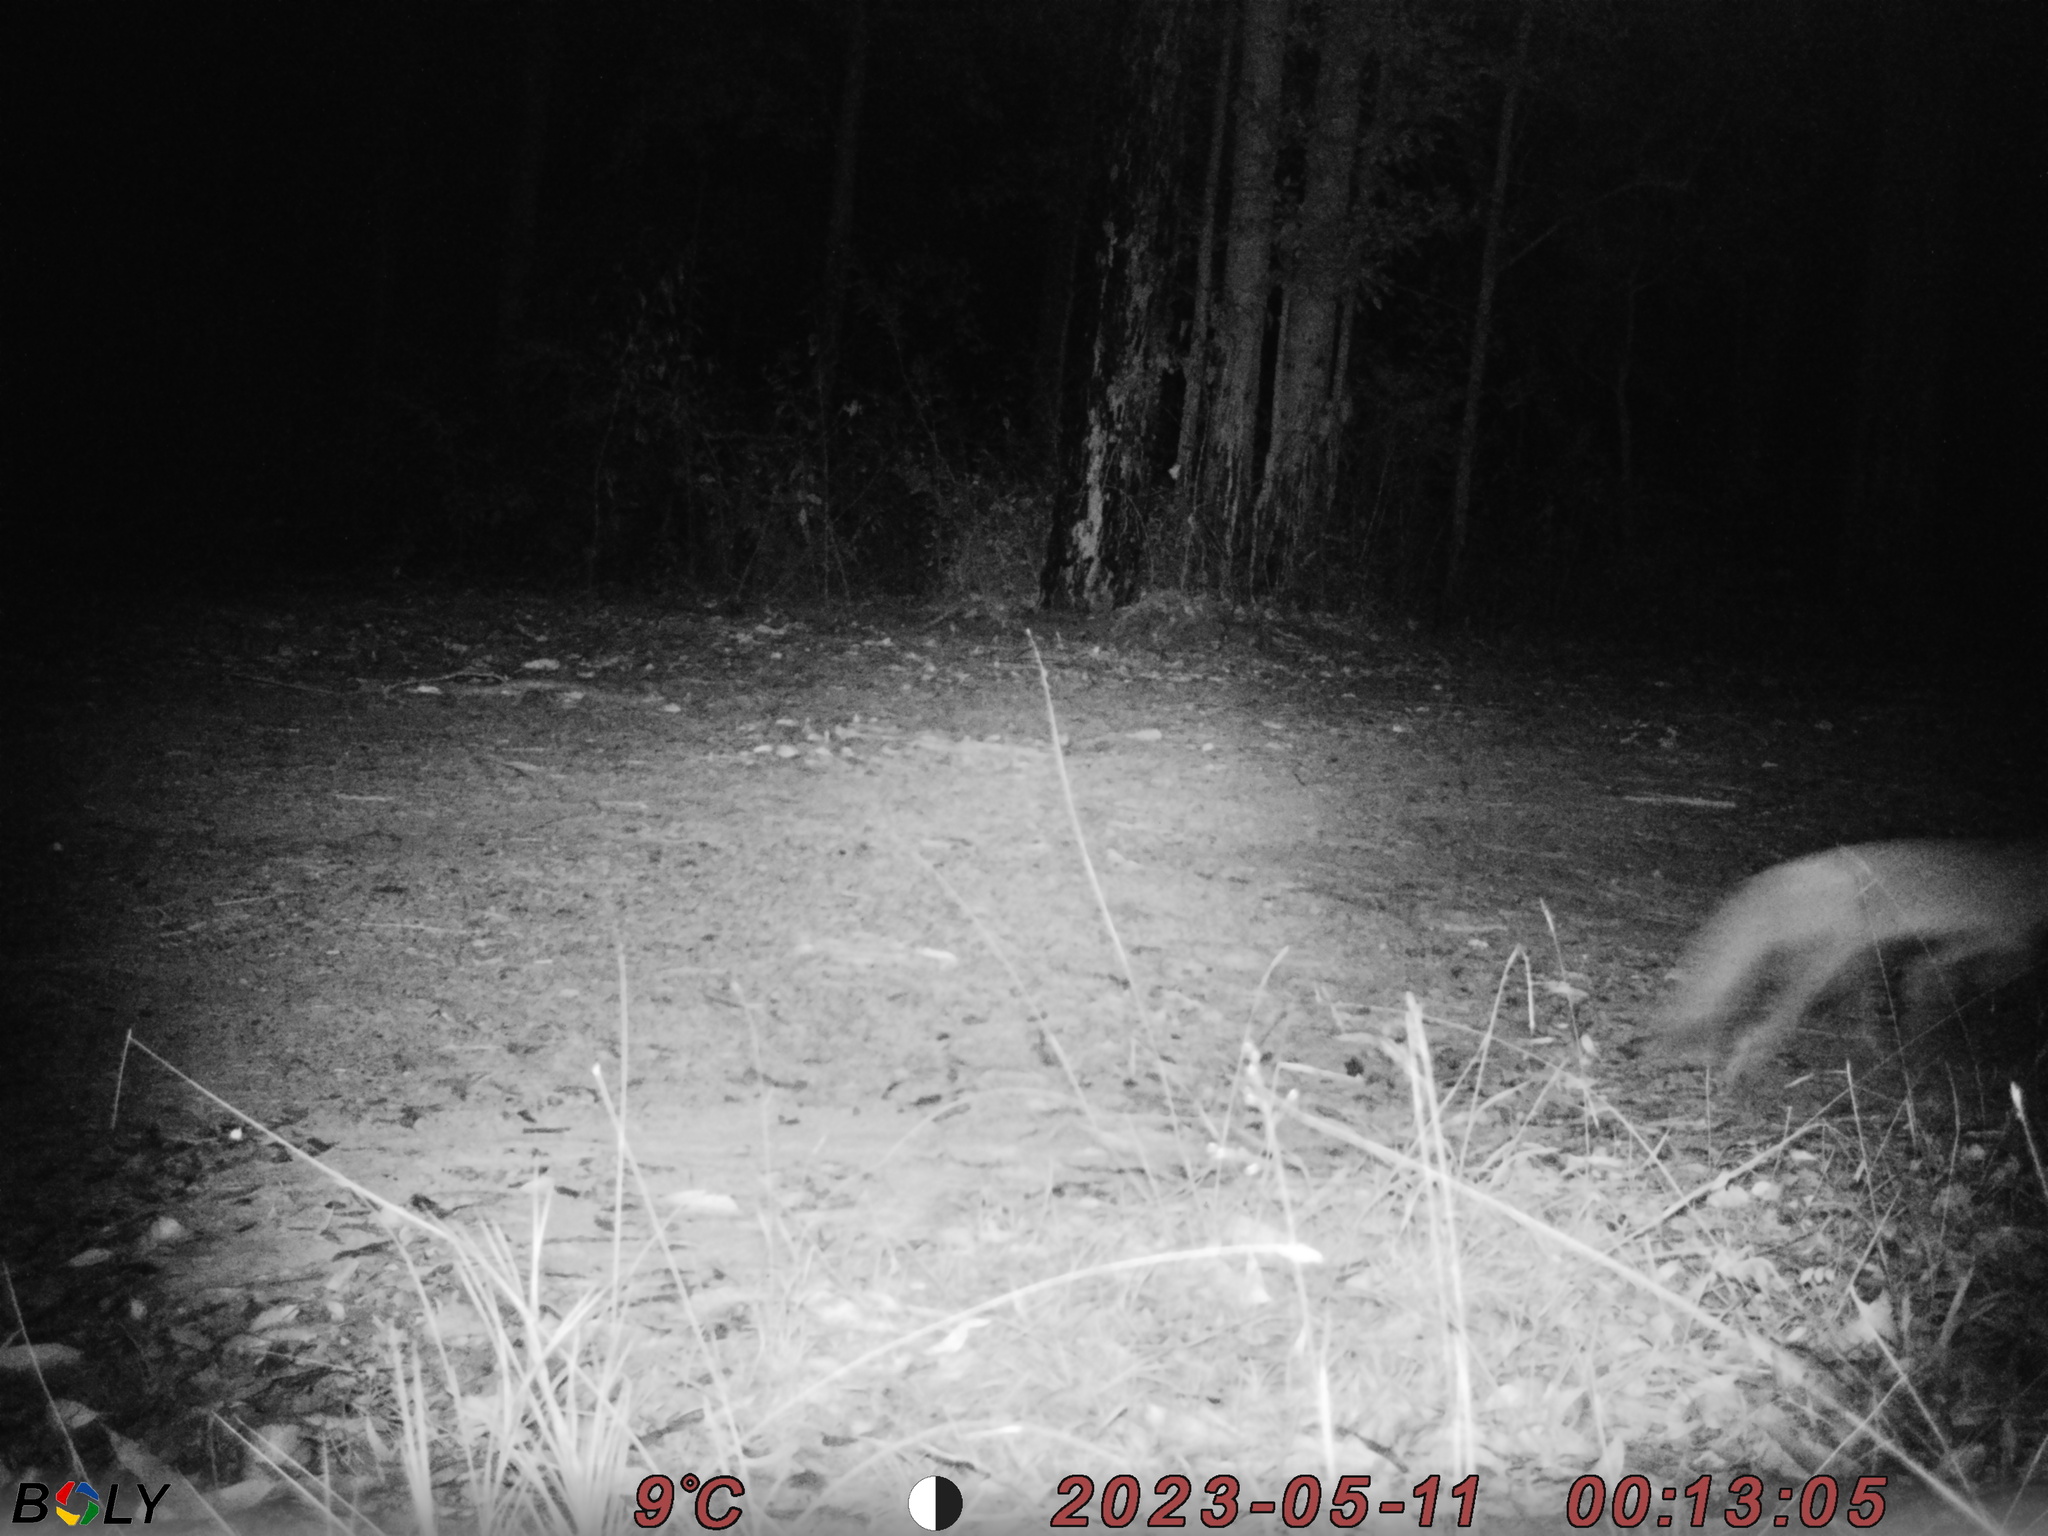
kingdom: Animalia
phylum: Chordata
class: Mammalia
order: Carnivora
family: Canidae
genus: Vulpes
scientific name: Vulpes vulpes
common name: Red fox
